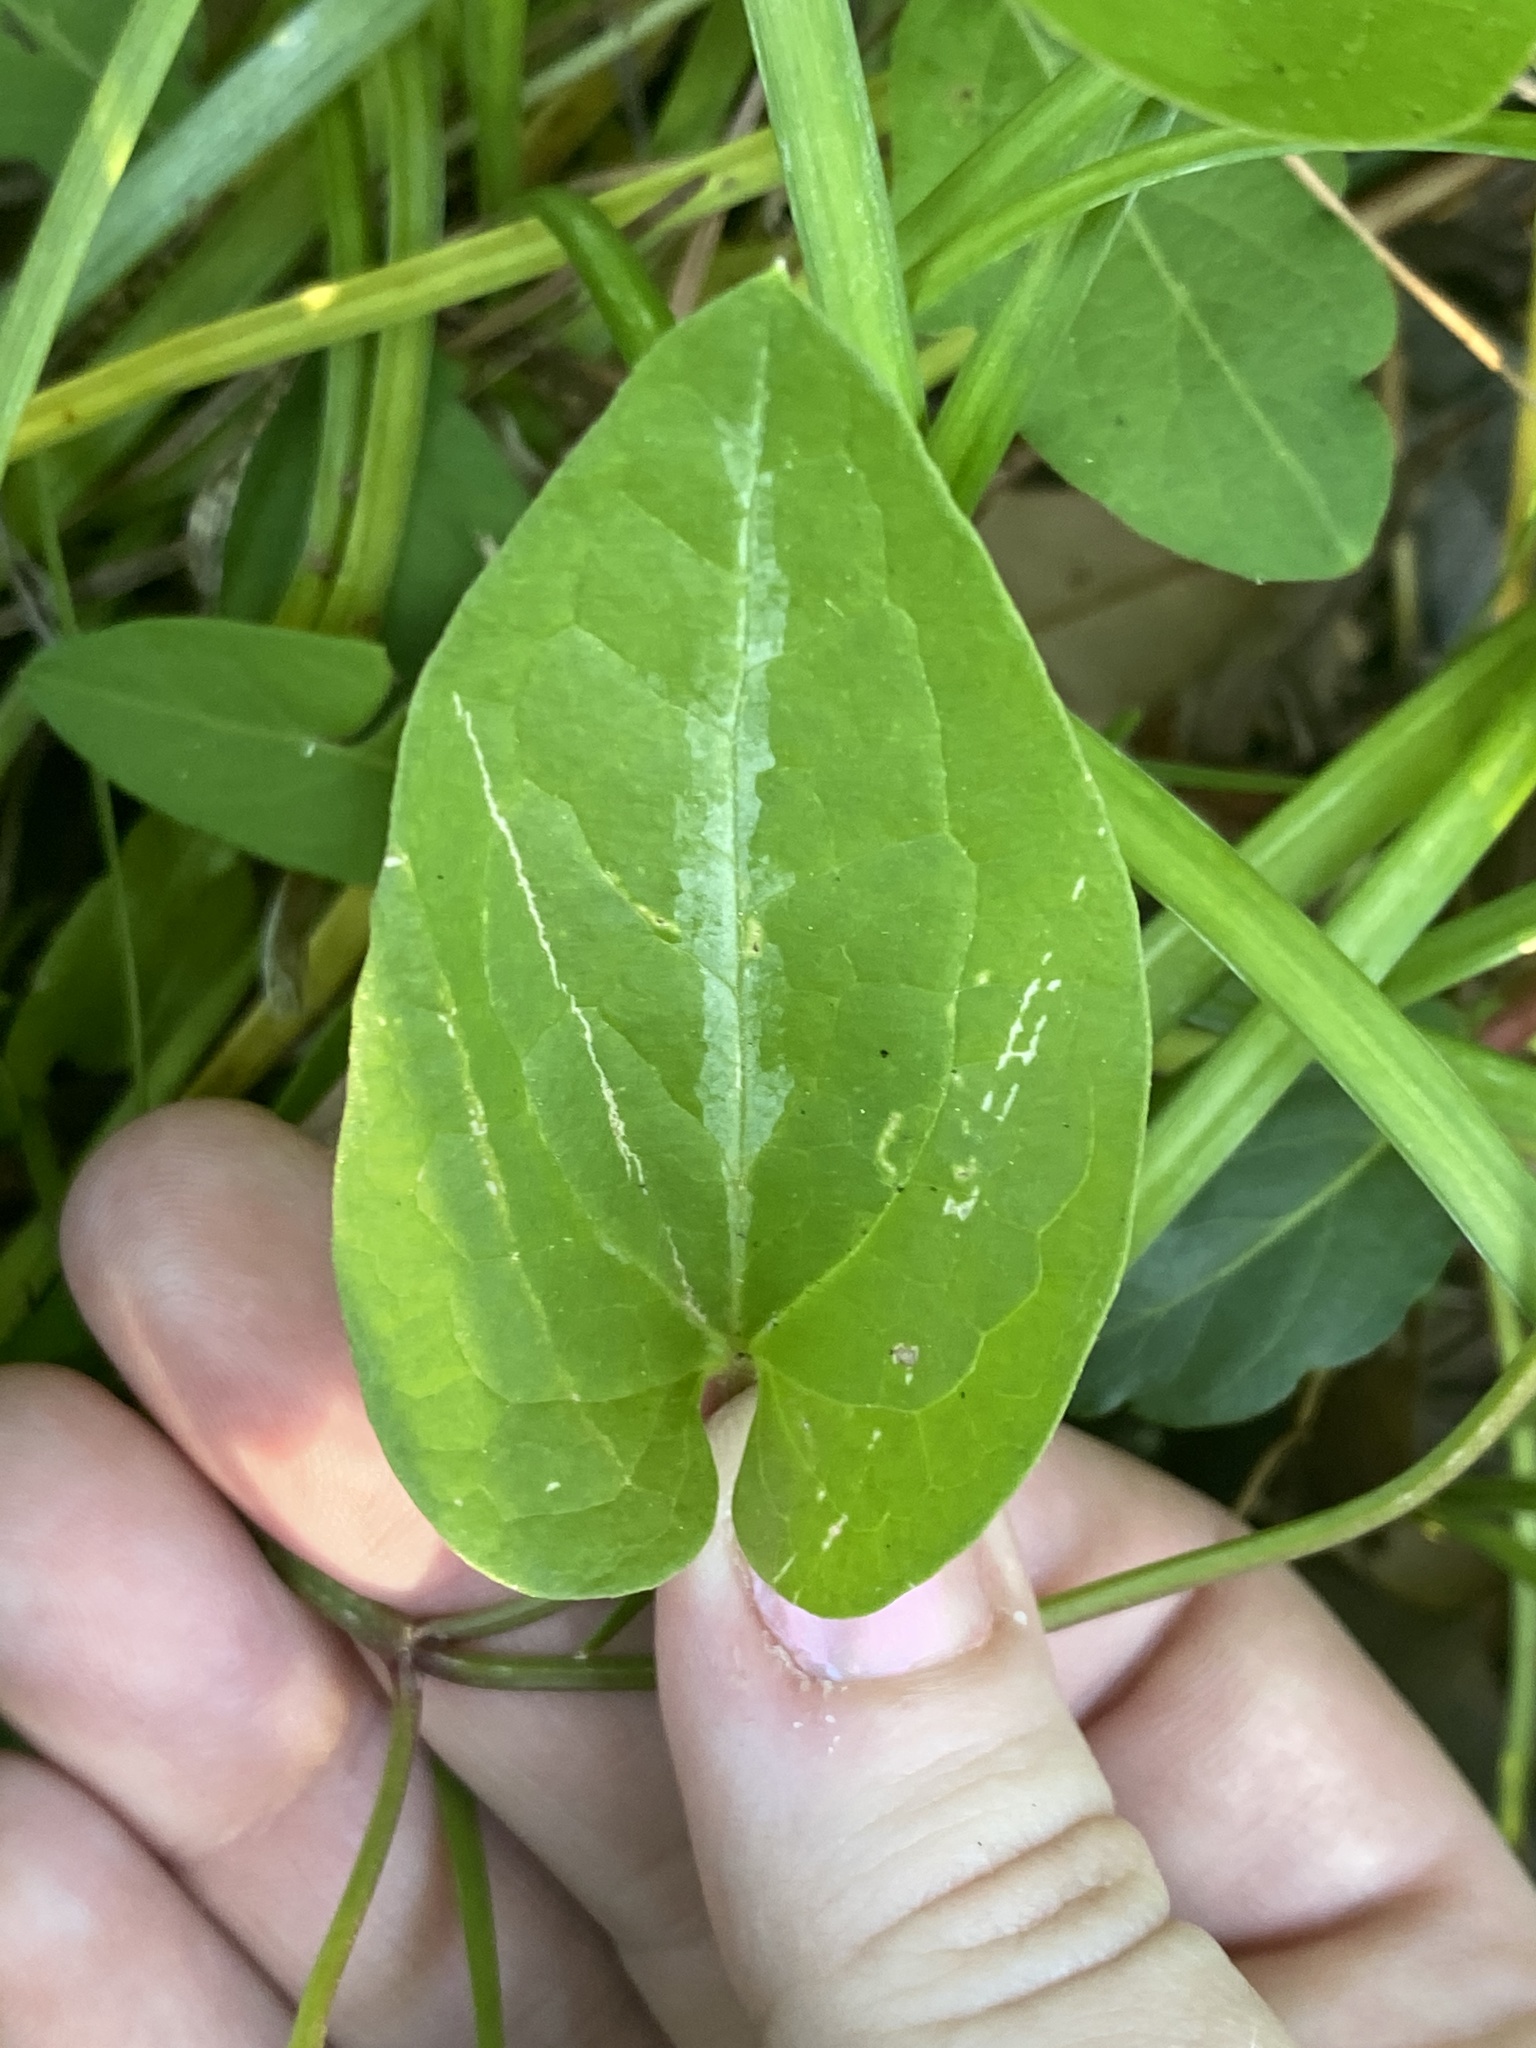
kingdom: Plantae
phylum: Tracheophyta
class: Magnoliopsida
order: Ranunculales
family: Ranunculaceae
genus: Clematis
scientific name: Clematis terniflora
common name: Sweet autumn clematis
